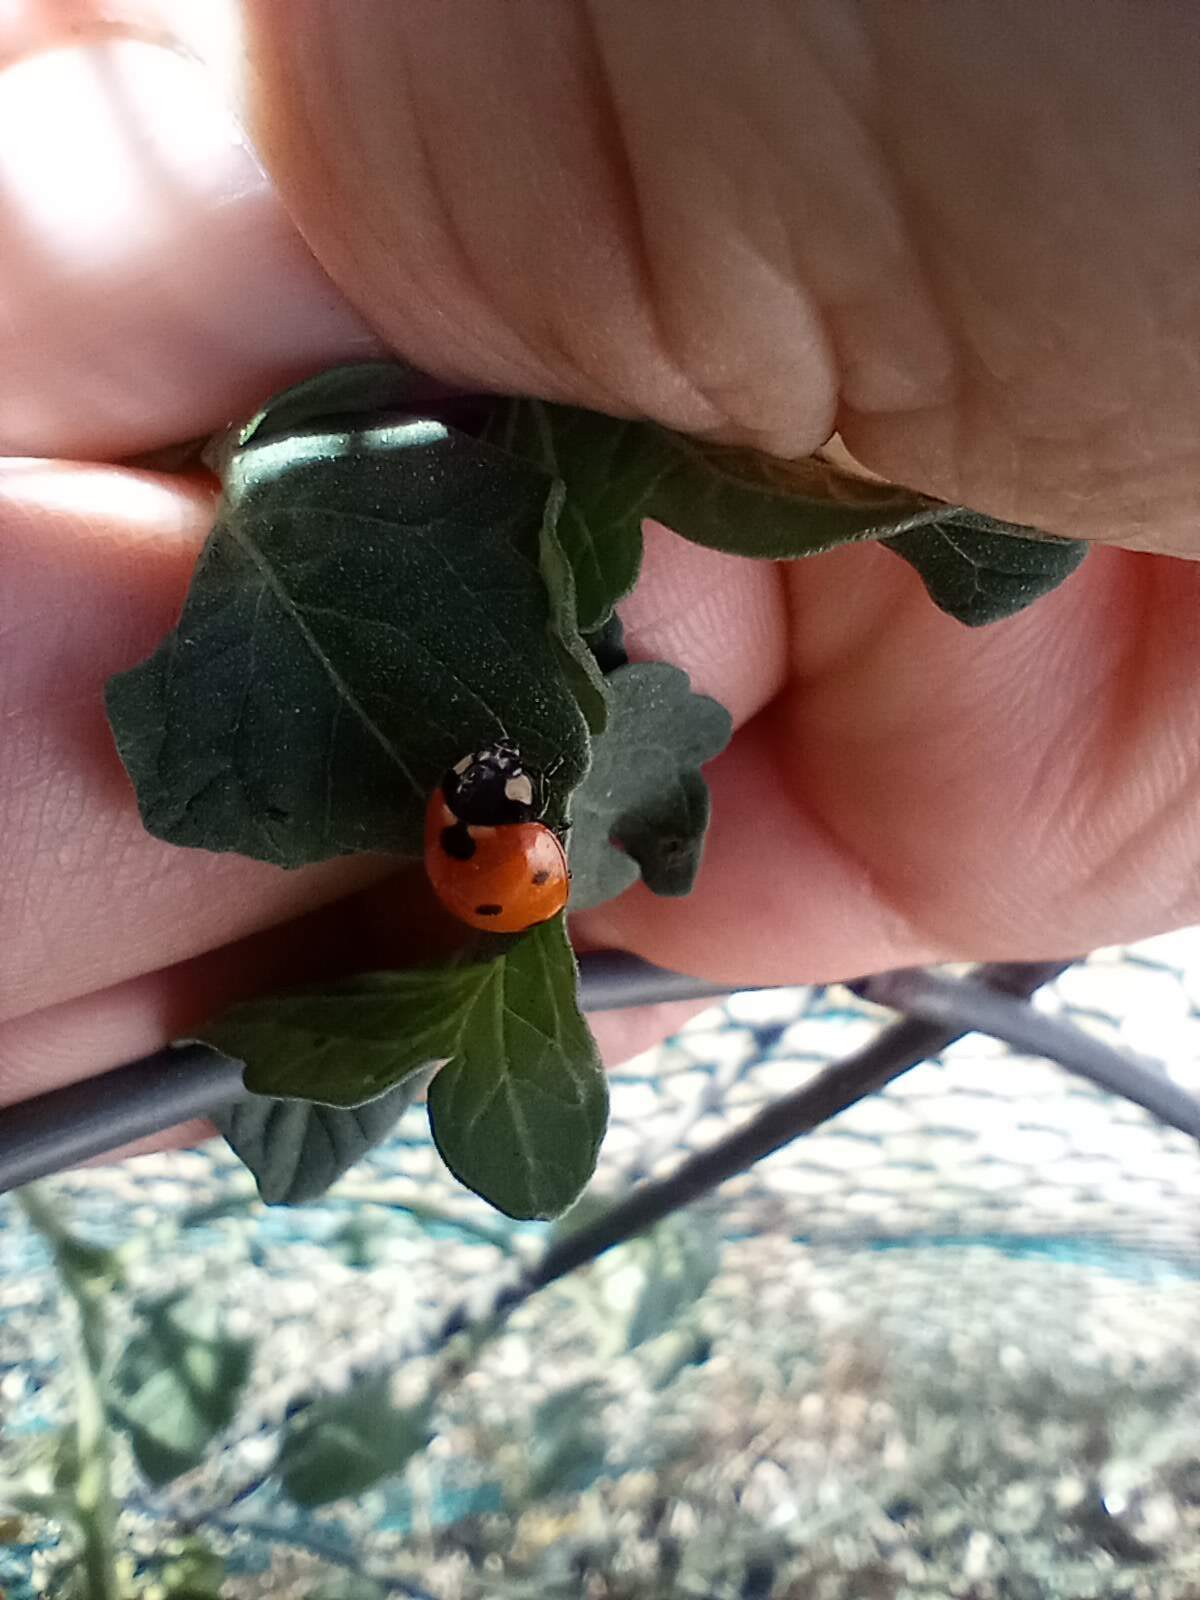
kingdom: Animalia
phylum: Arthropoda
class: Insecta
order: Coleoptera
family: Coccinellidae
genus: Coccinella
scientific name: Coccinella septempunctata
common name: Sevenspotted lady beetle
